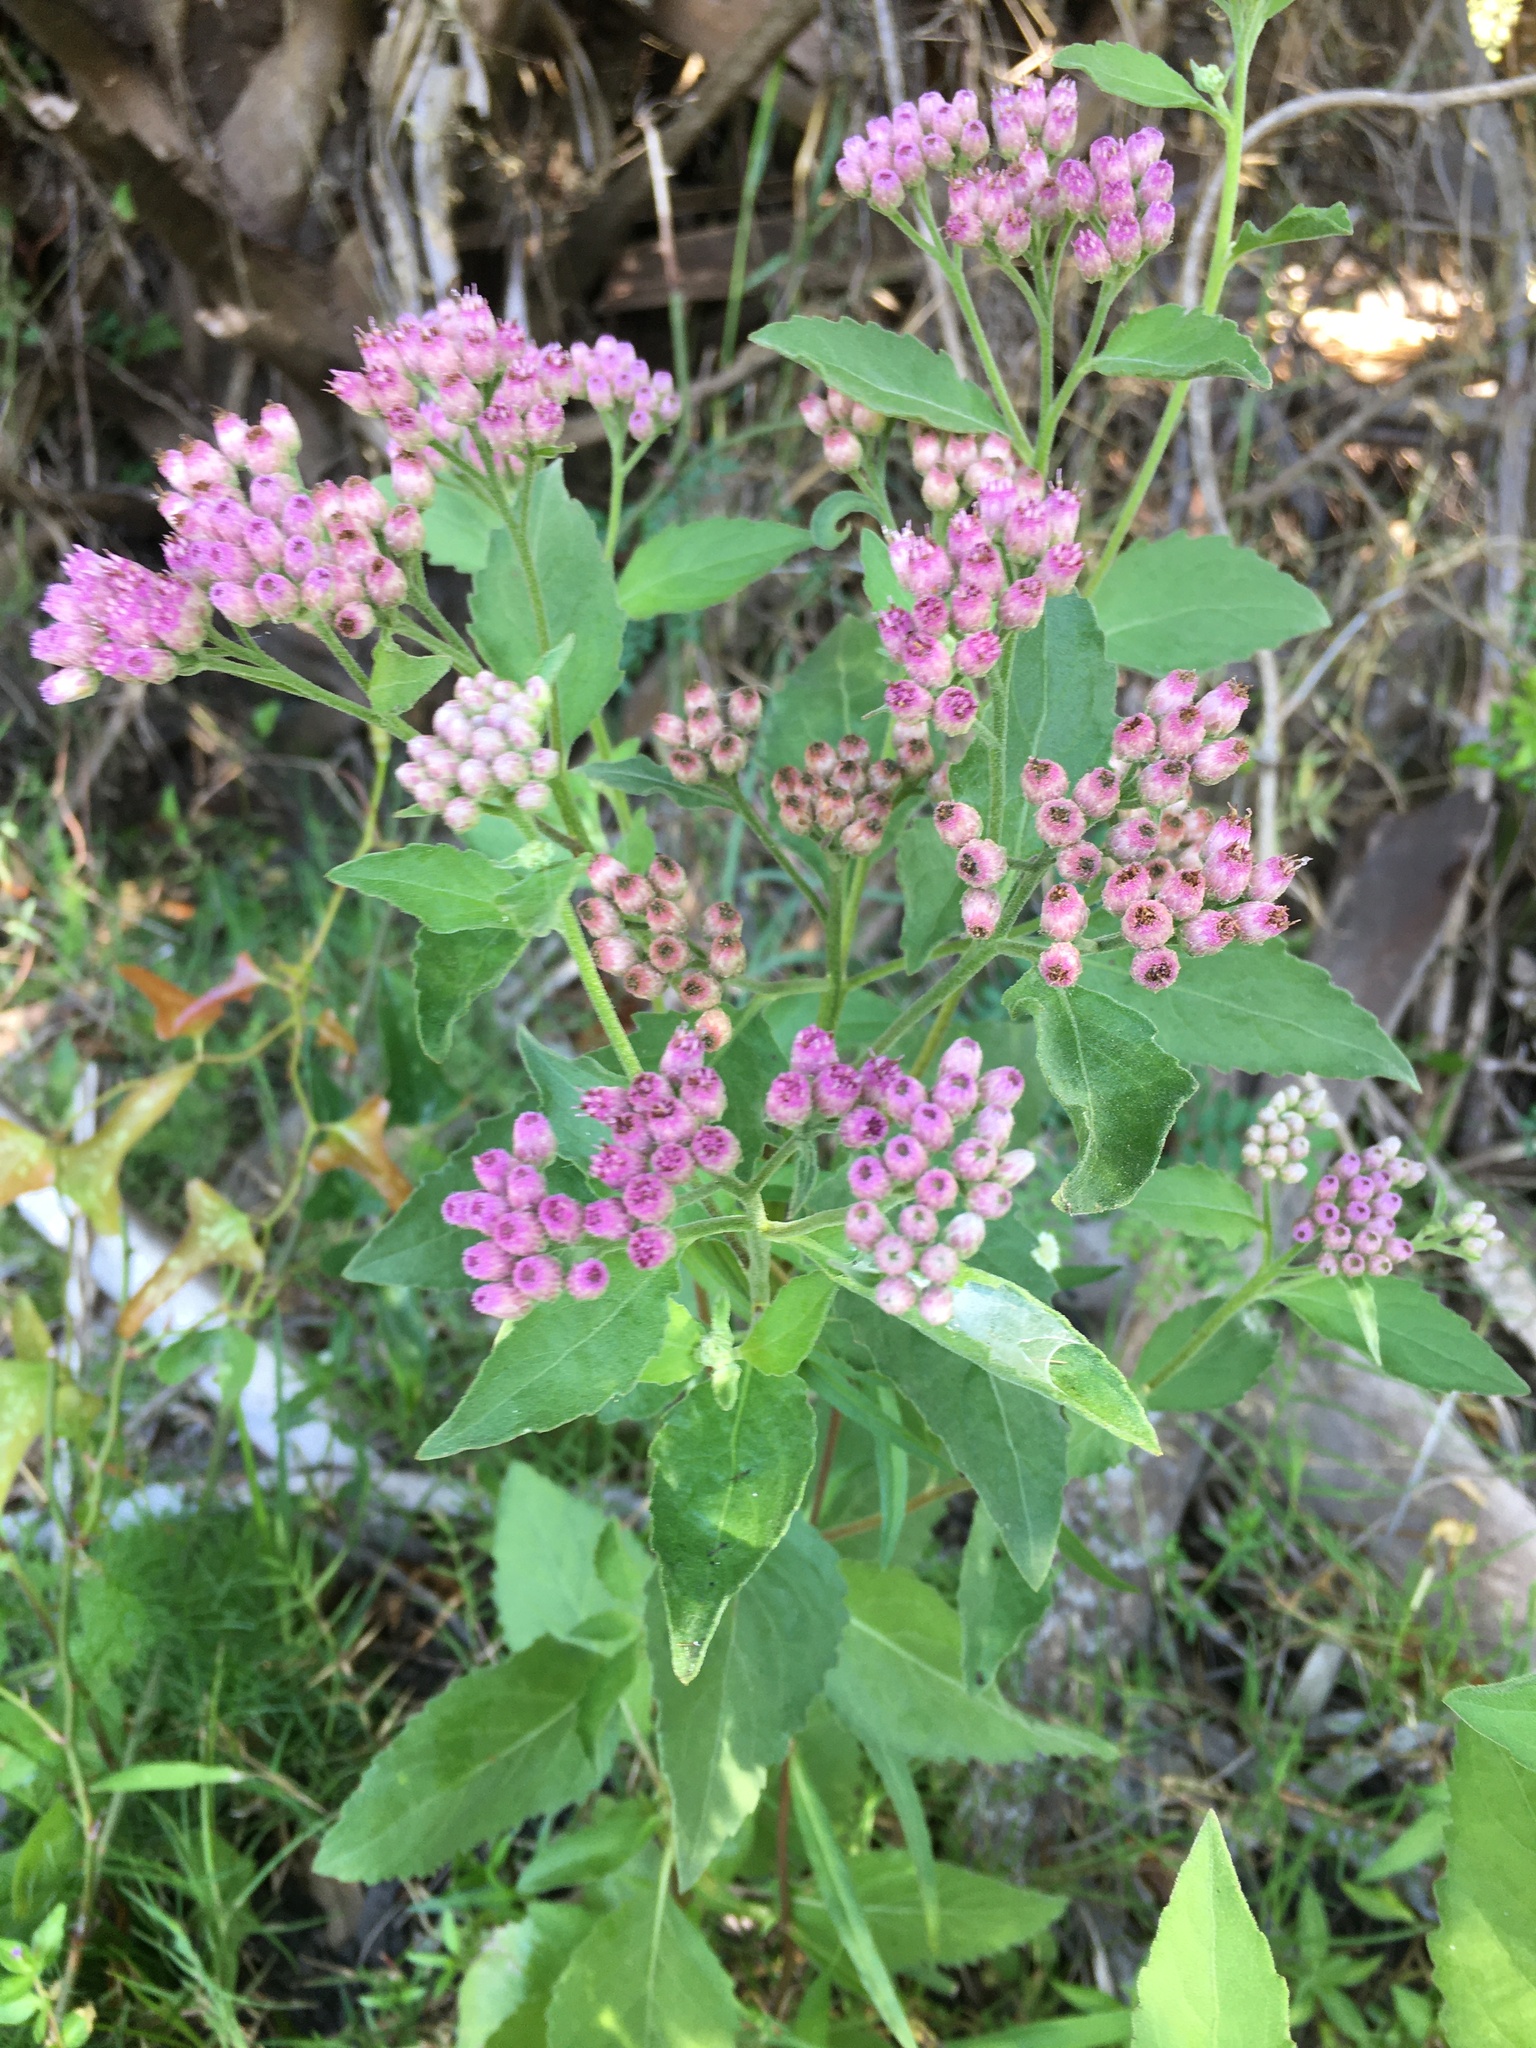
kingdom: Plantae
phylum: Tracheophyta
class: Magnoliopsida
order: Asterales
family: Asteraceae
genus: Pluchea
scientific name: Pluchea odorata
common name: Saltmarsh fleabane
